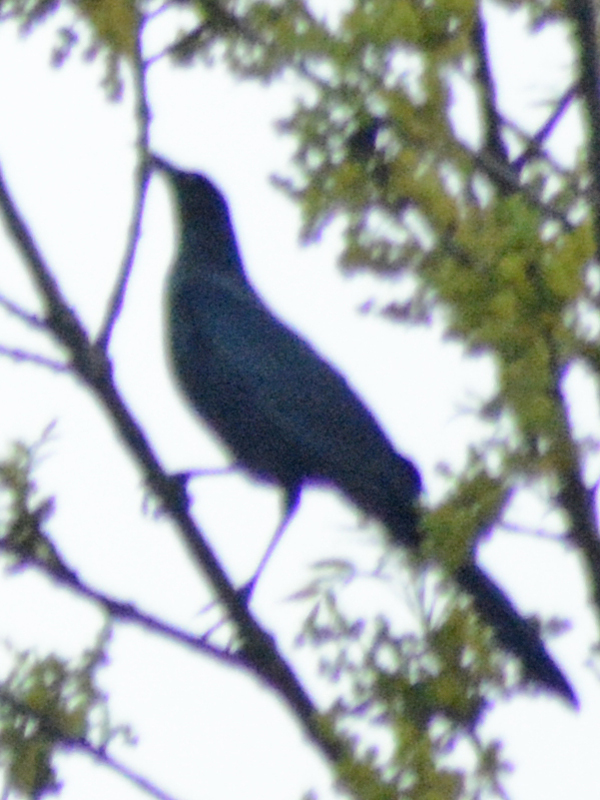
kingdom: Animalia
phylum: Chordata
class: Aves
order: Passeriformes
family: Icteridae
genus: Quiscalus
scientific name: Quiscalus mexicanus
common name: Great-tailed grackle
